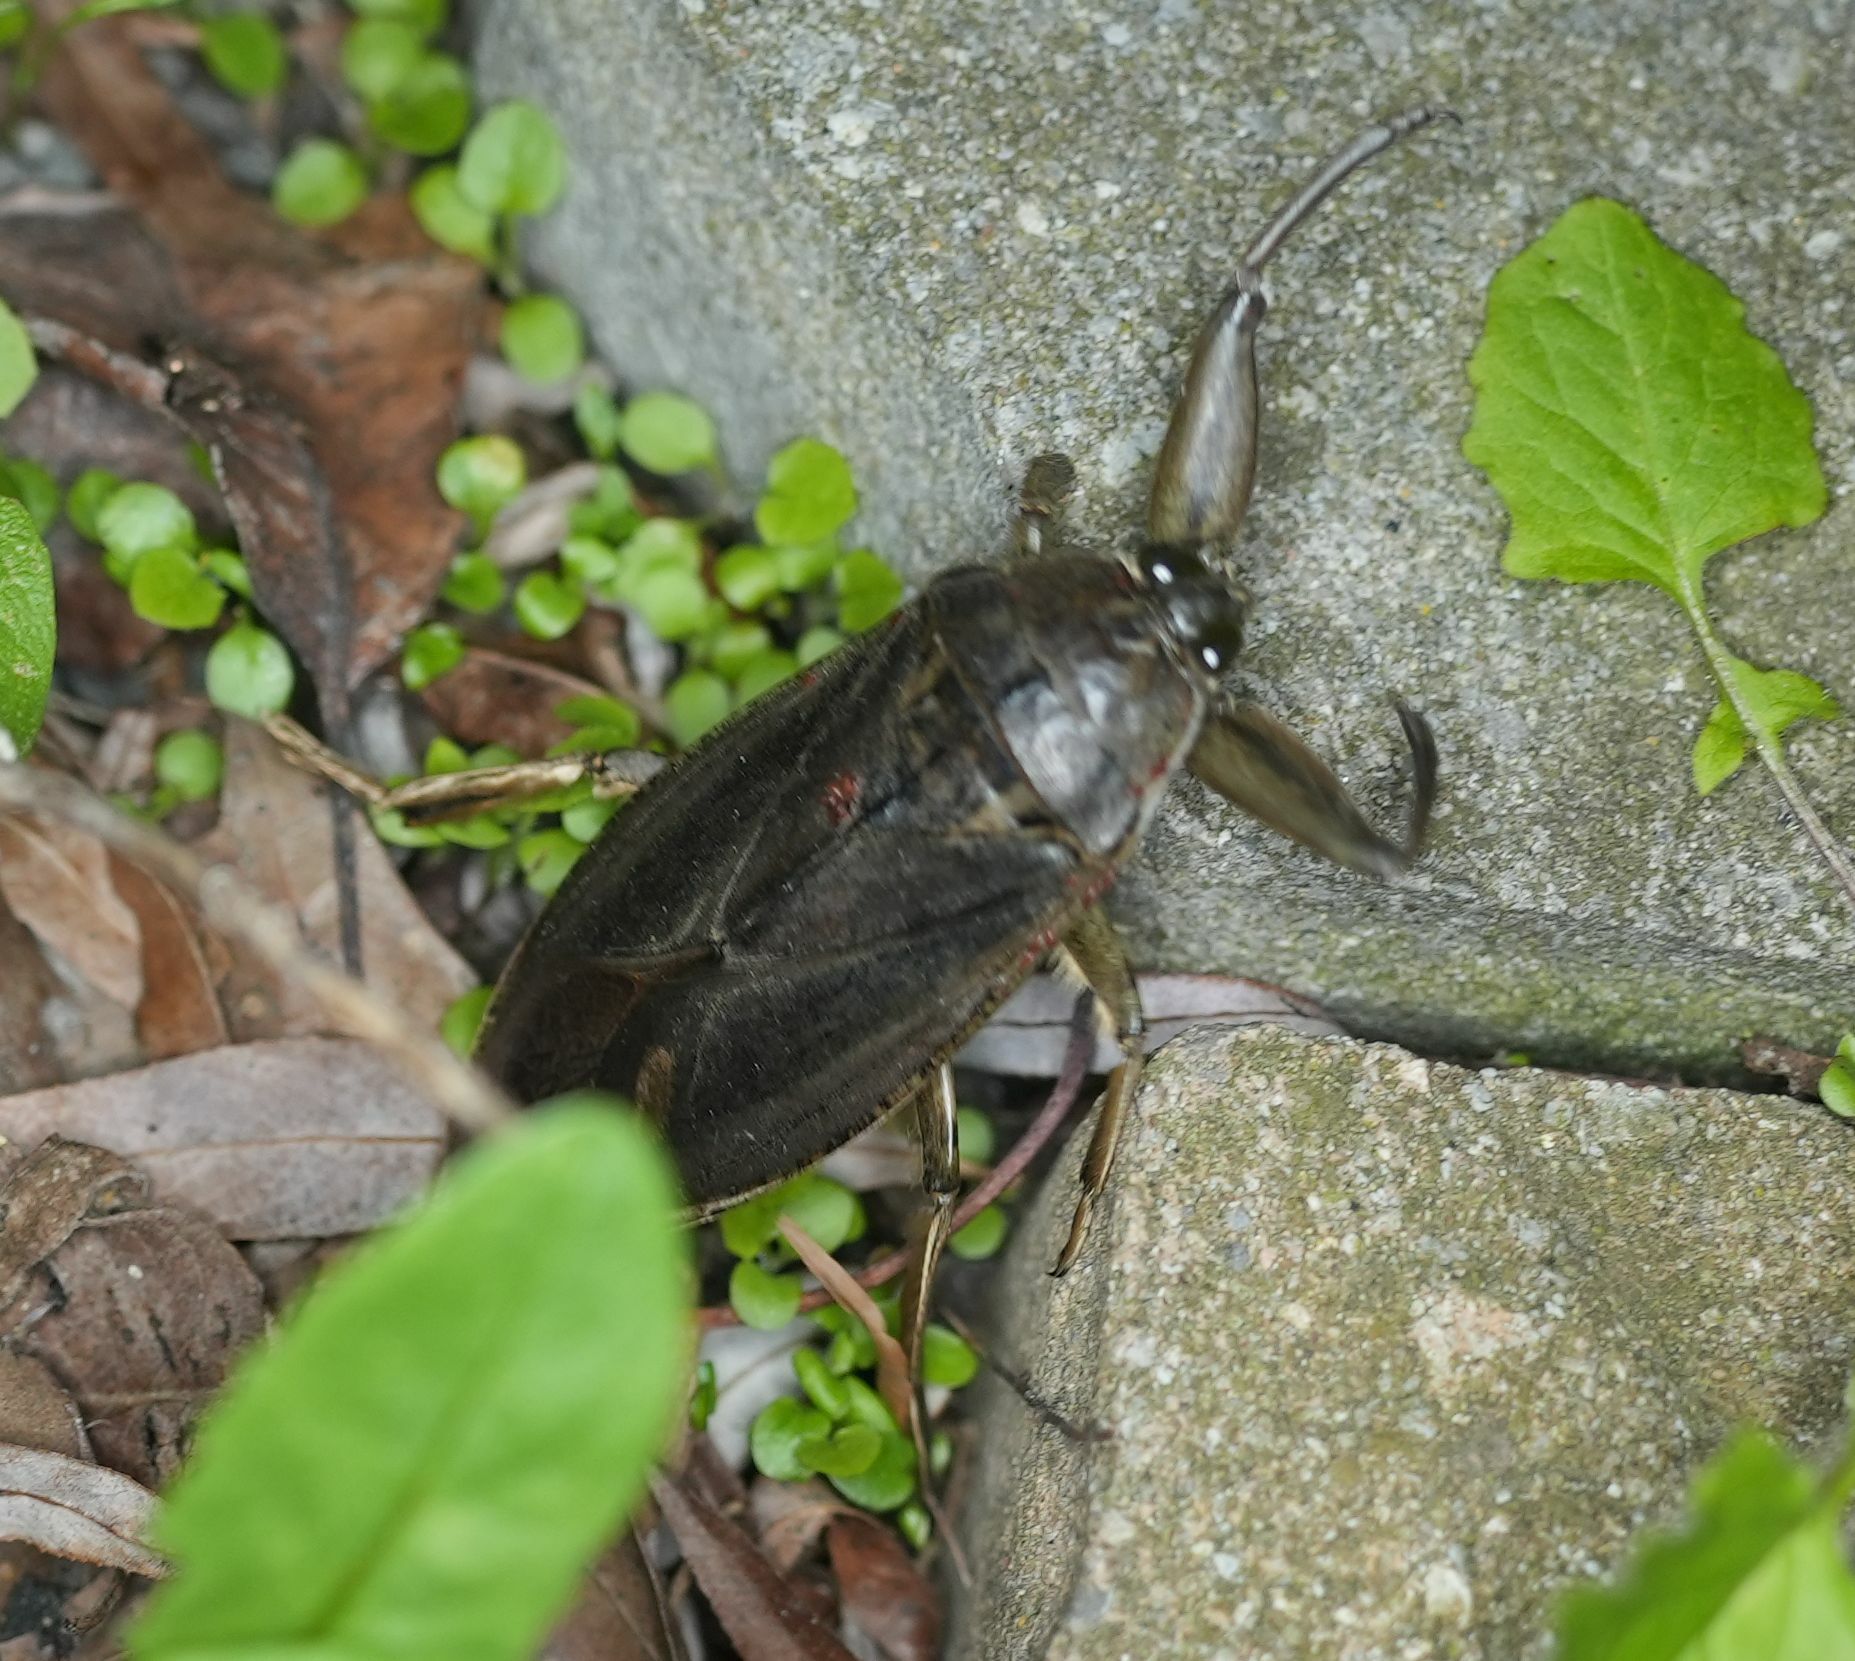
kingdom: Animalia
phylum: Arthropoda
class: Insecta
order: Hemiptera
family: Belostomatidae
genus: Lethocerus
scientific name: Lethocerus americanus
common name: Giant water bug
